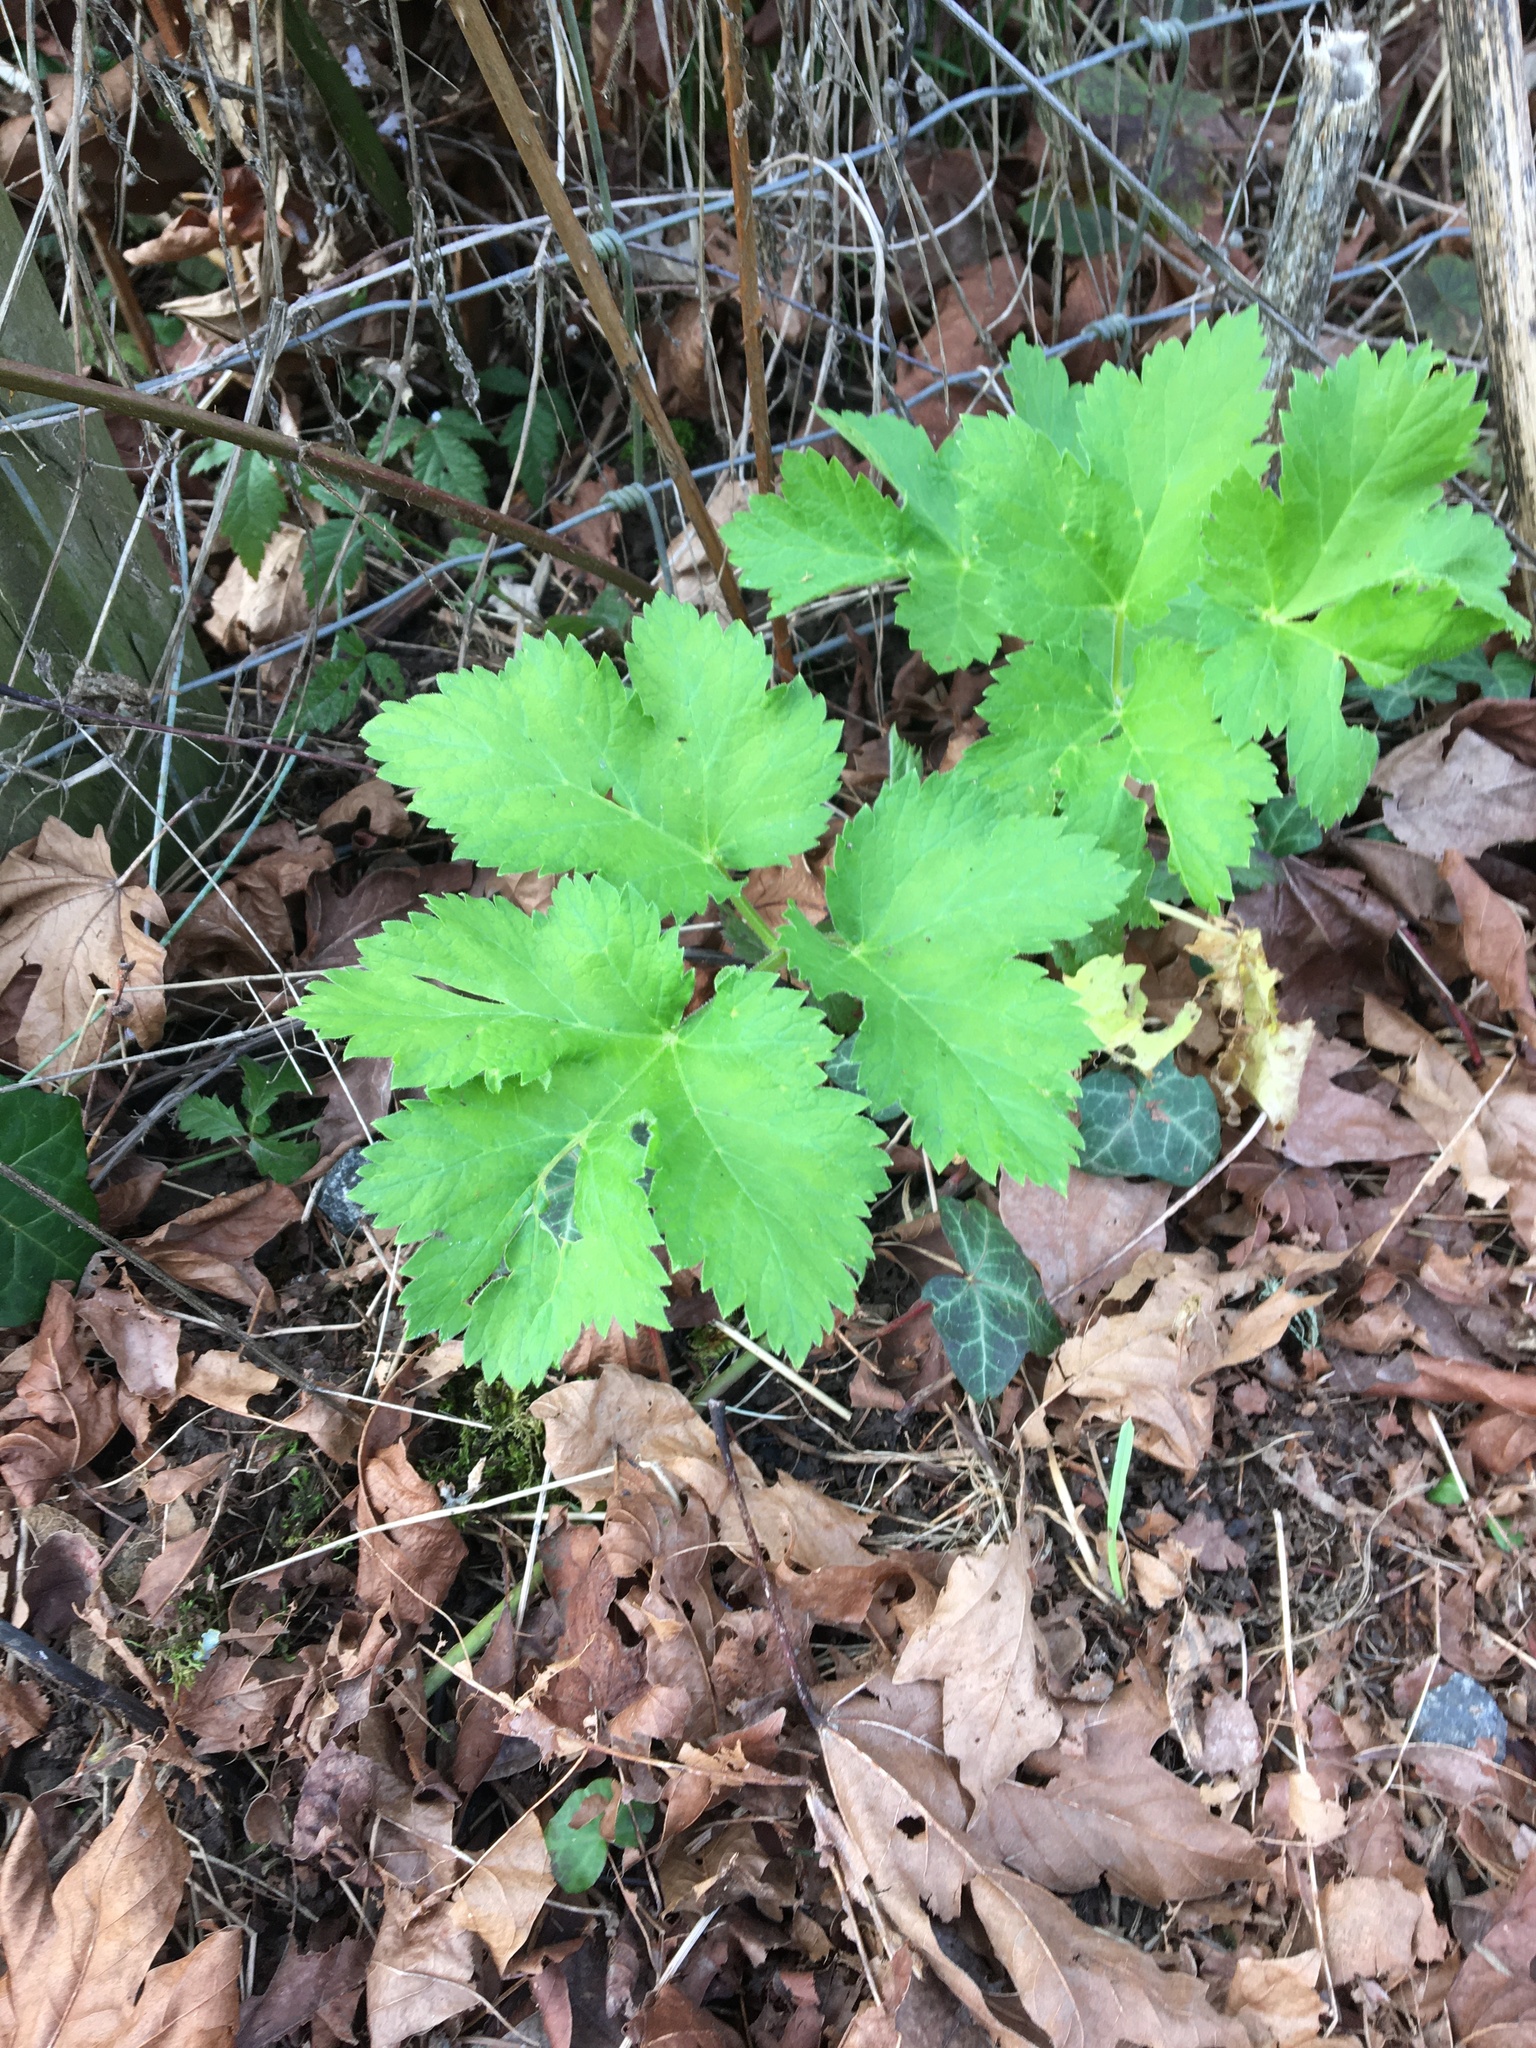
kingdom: Plantae
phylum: Tracheophyta
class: Magnoliopsida
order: Apiales
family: Apiaceae
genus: Heracleum
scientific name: Heracleum maximum
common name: American cow parsnip
